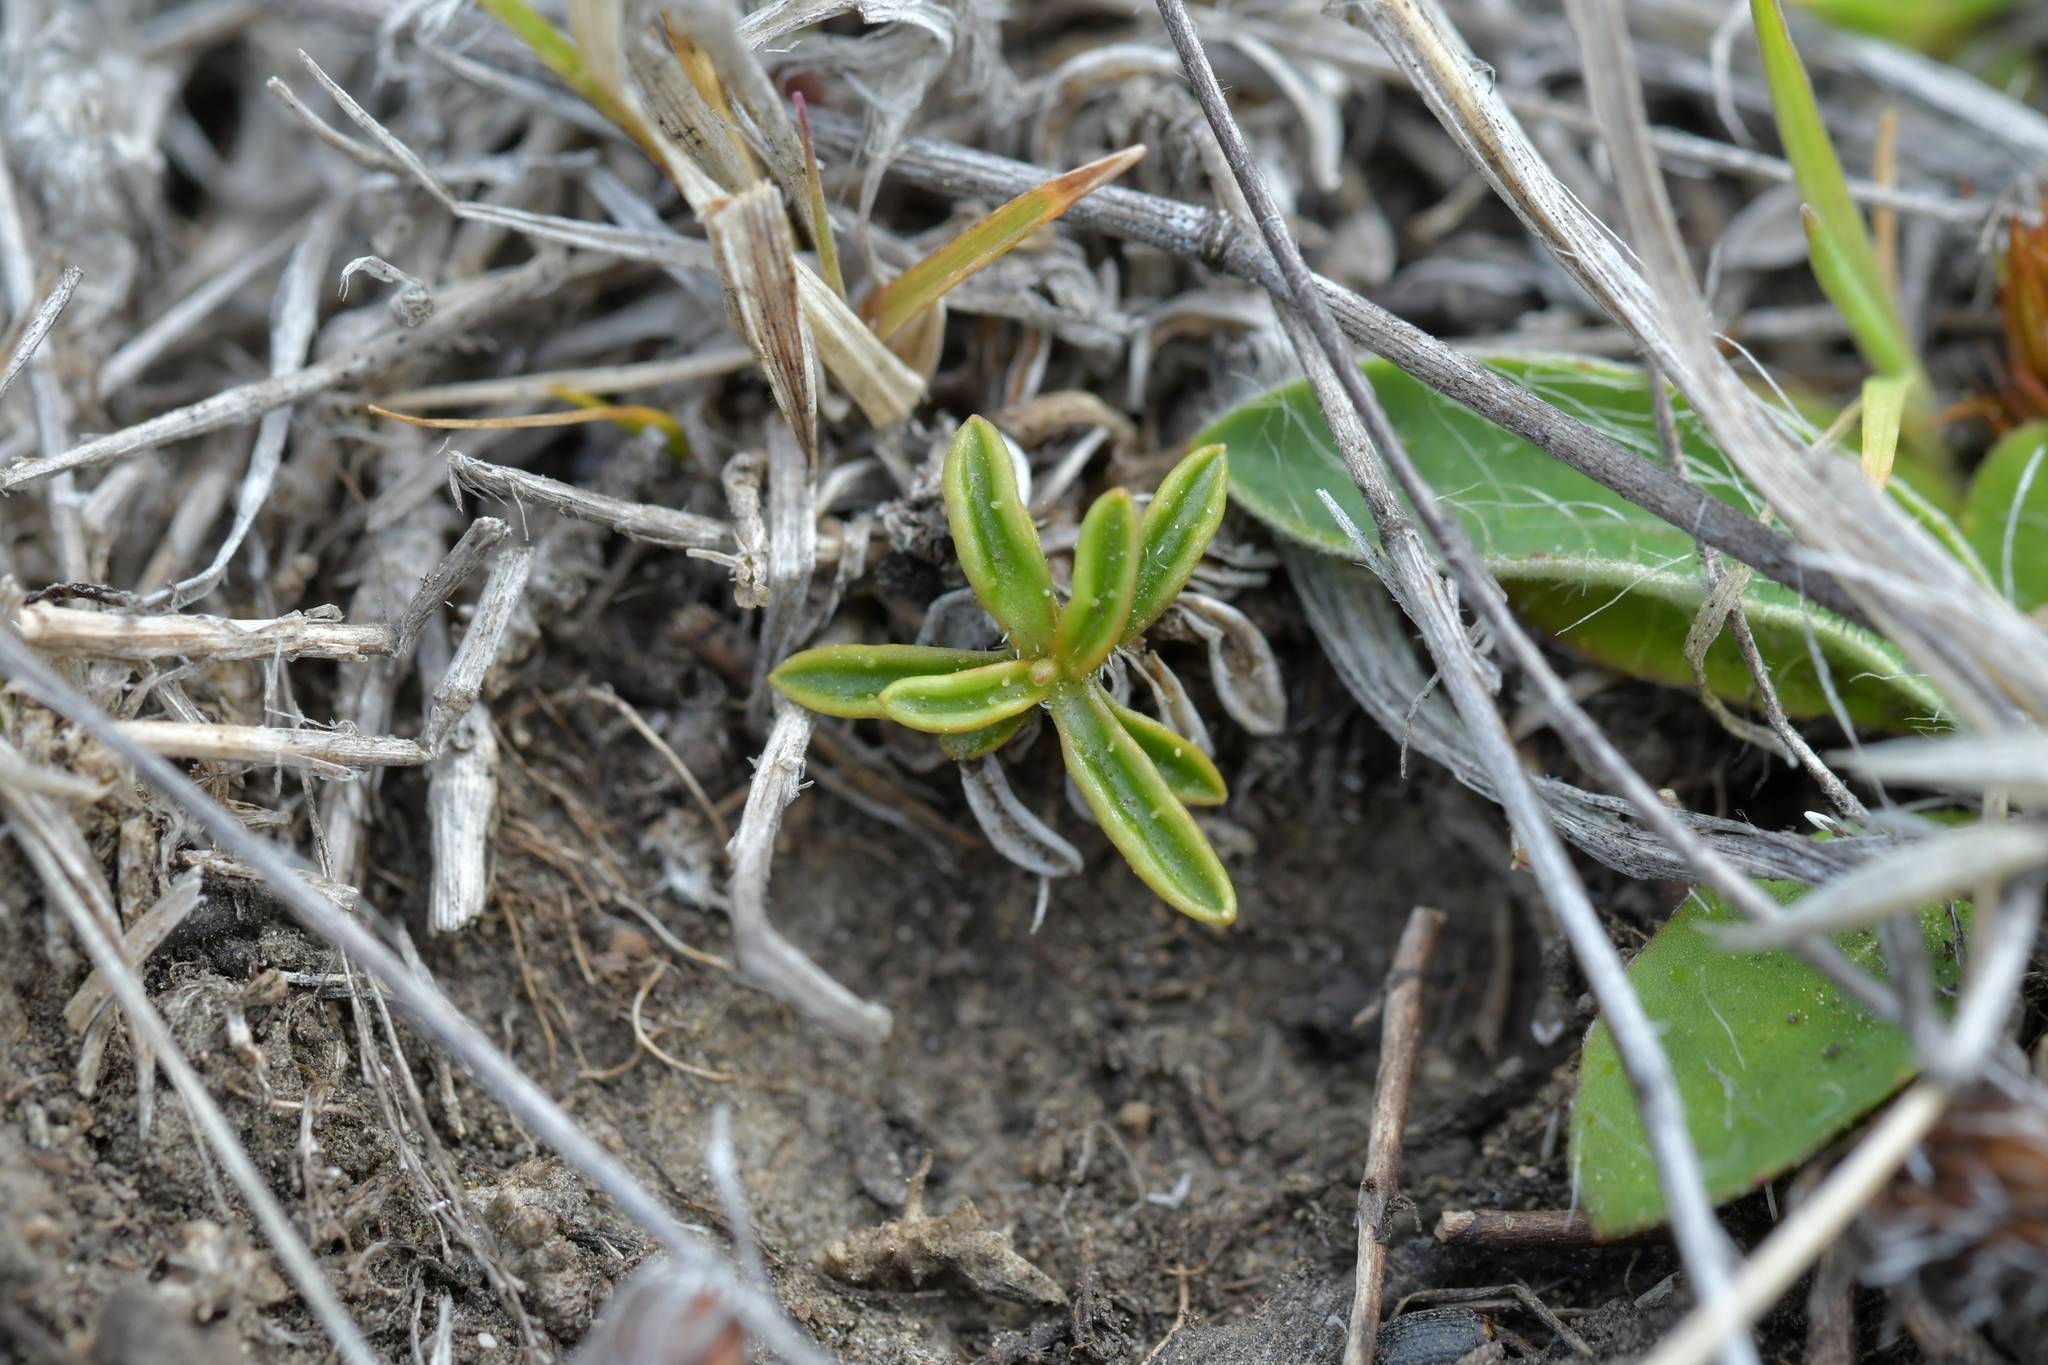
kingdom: Plantae
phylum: Tracheophyta
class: Magnoliopsida
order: Asterales
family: Campanulaceae
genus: Wahlenbergia
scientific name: Wahlenbergia albomarginata
